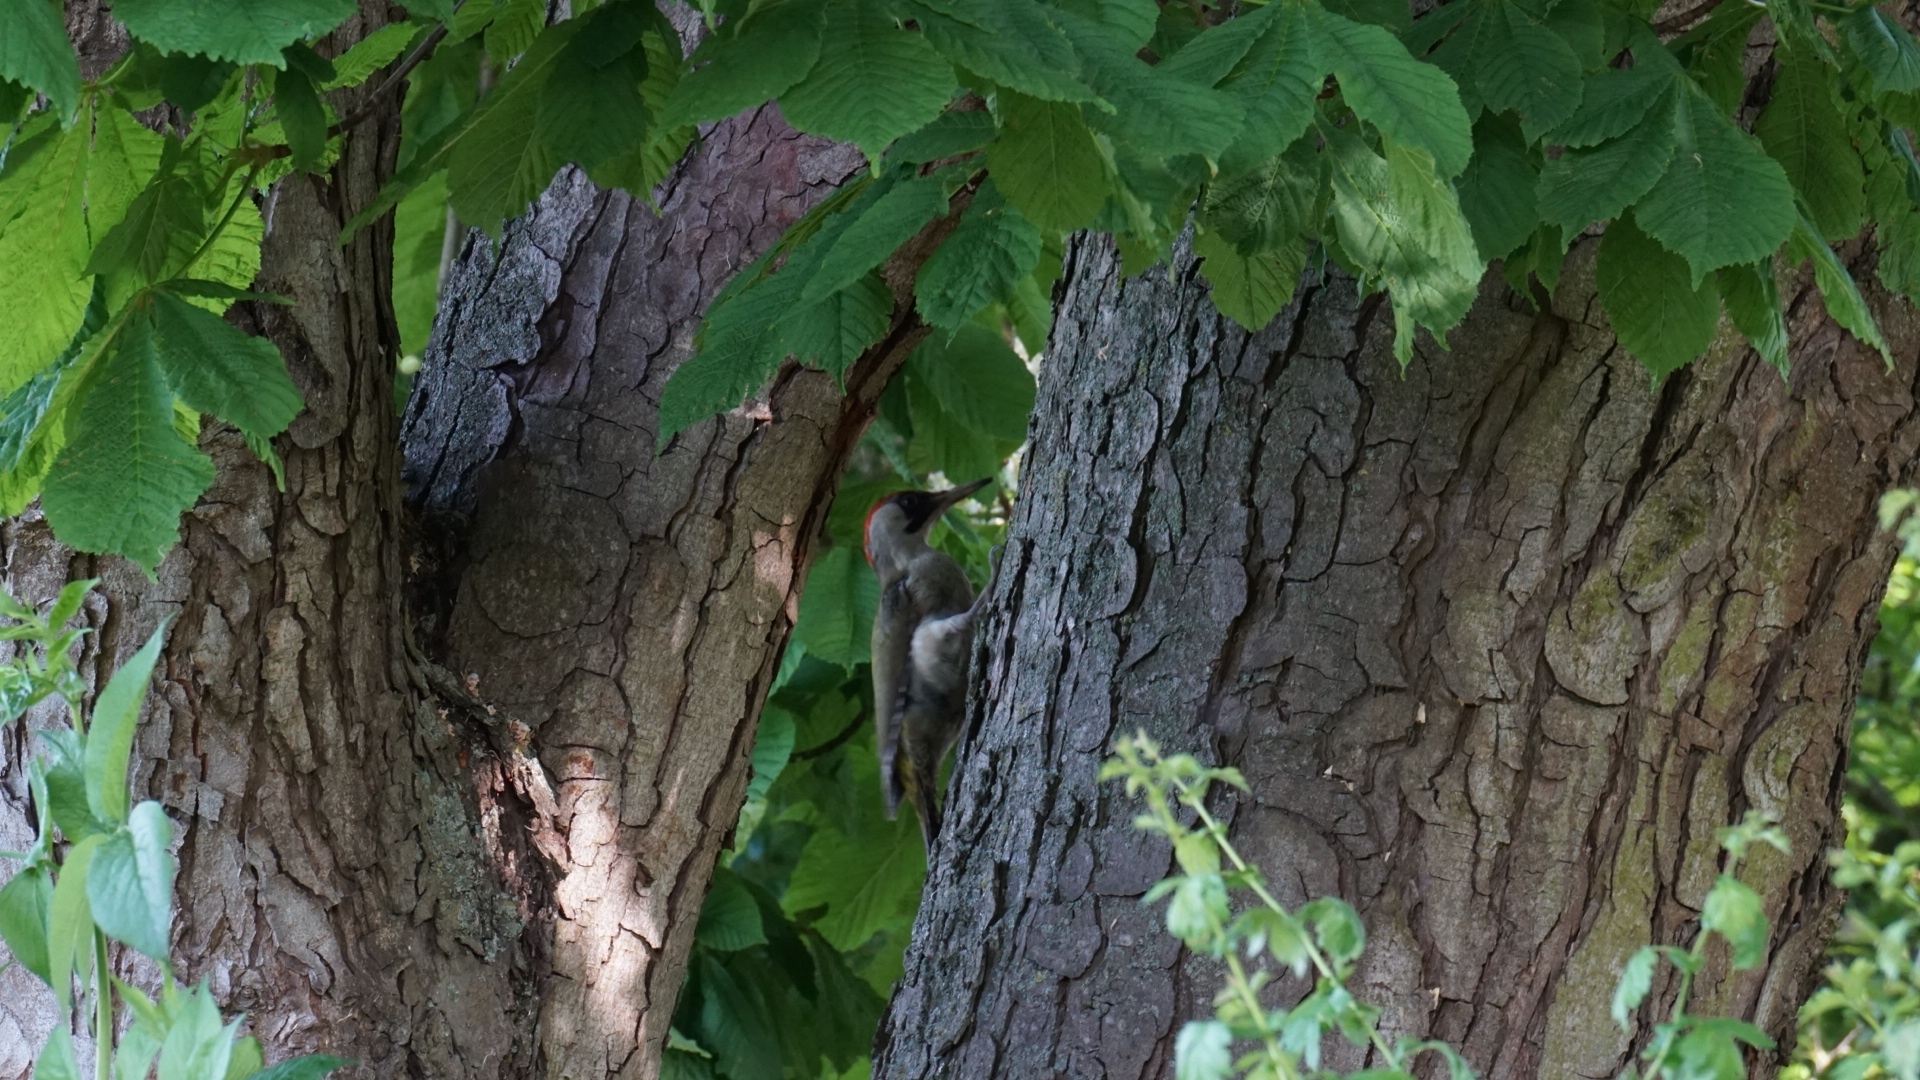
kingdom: Animalia
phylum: Chordata
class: Aves
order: Piciformes
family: Picidae
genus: Picus
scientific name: Picus viridis
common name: European green woodpecker
